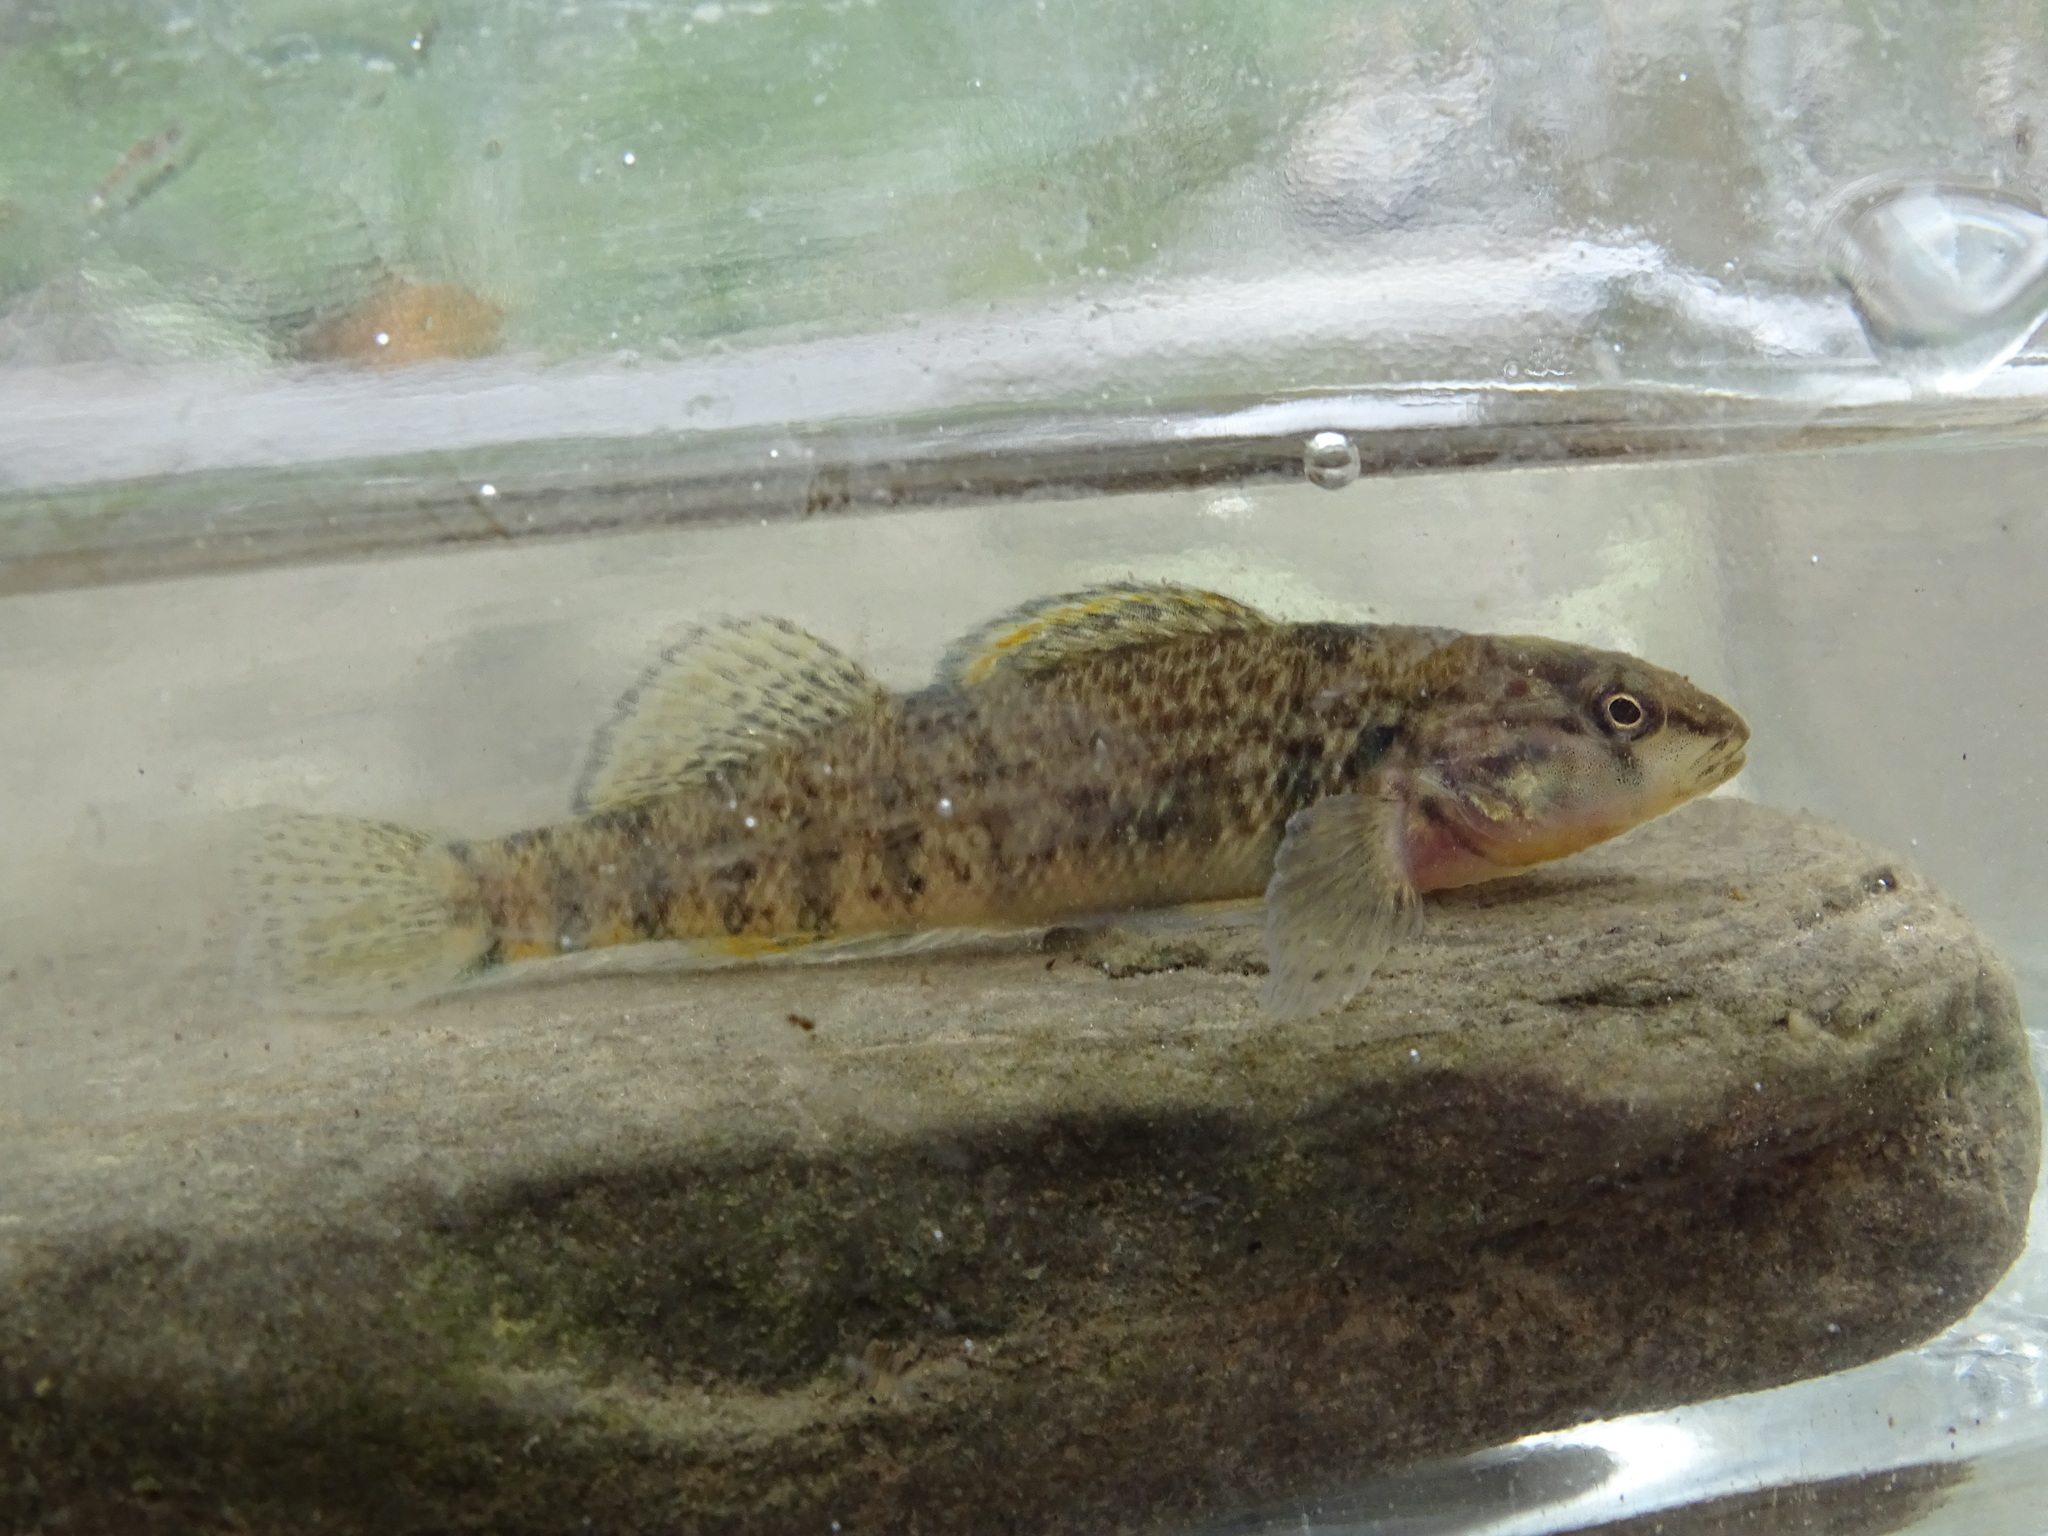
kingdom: Animalia
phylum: Chordata
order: Perciformes
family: Percidae
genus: Etheostoma
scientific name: Etheostoma caeruleum
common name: Rainbow darter
